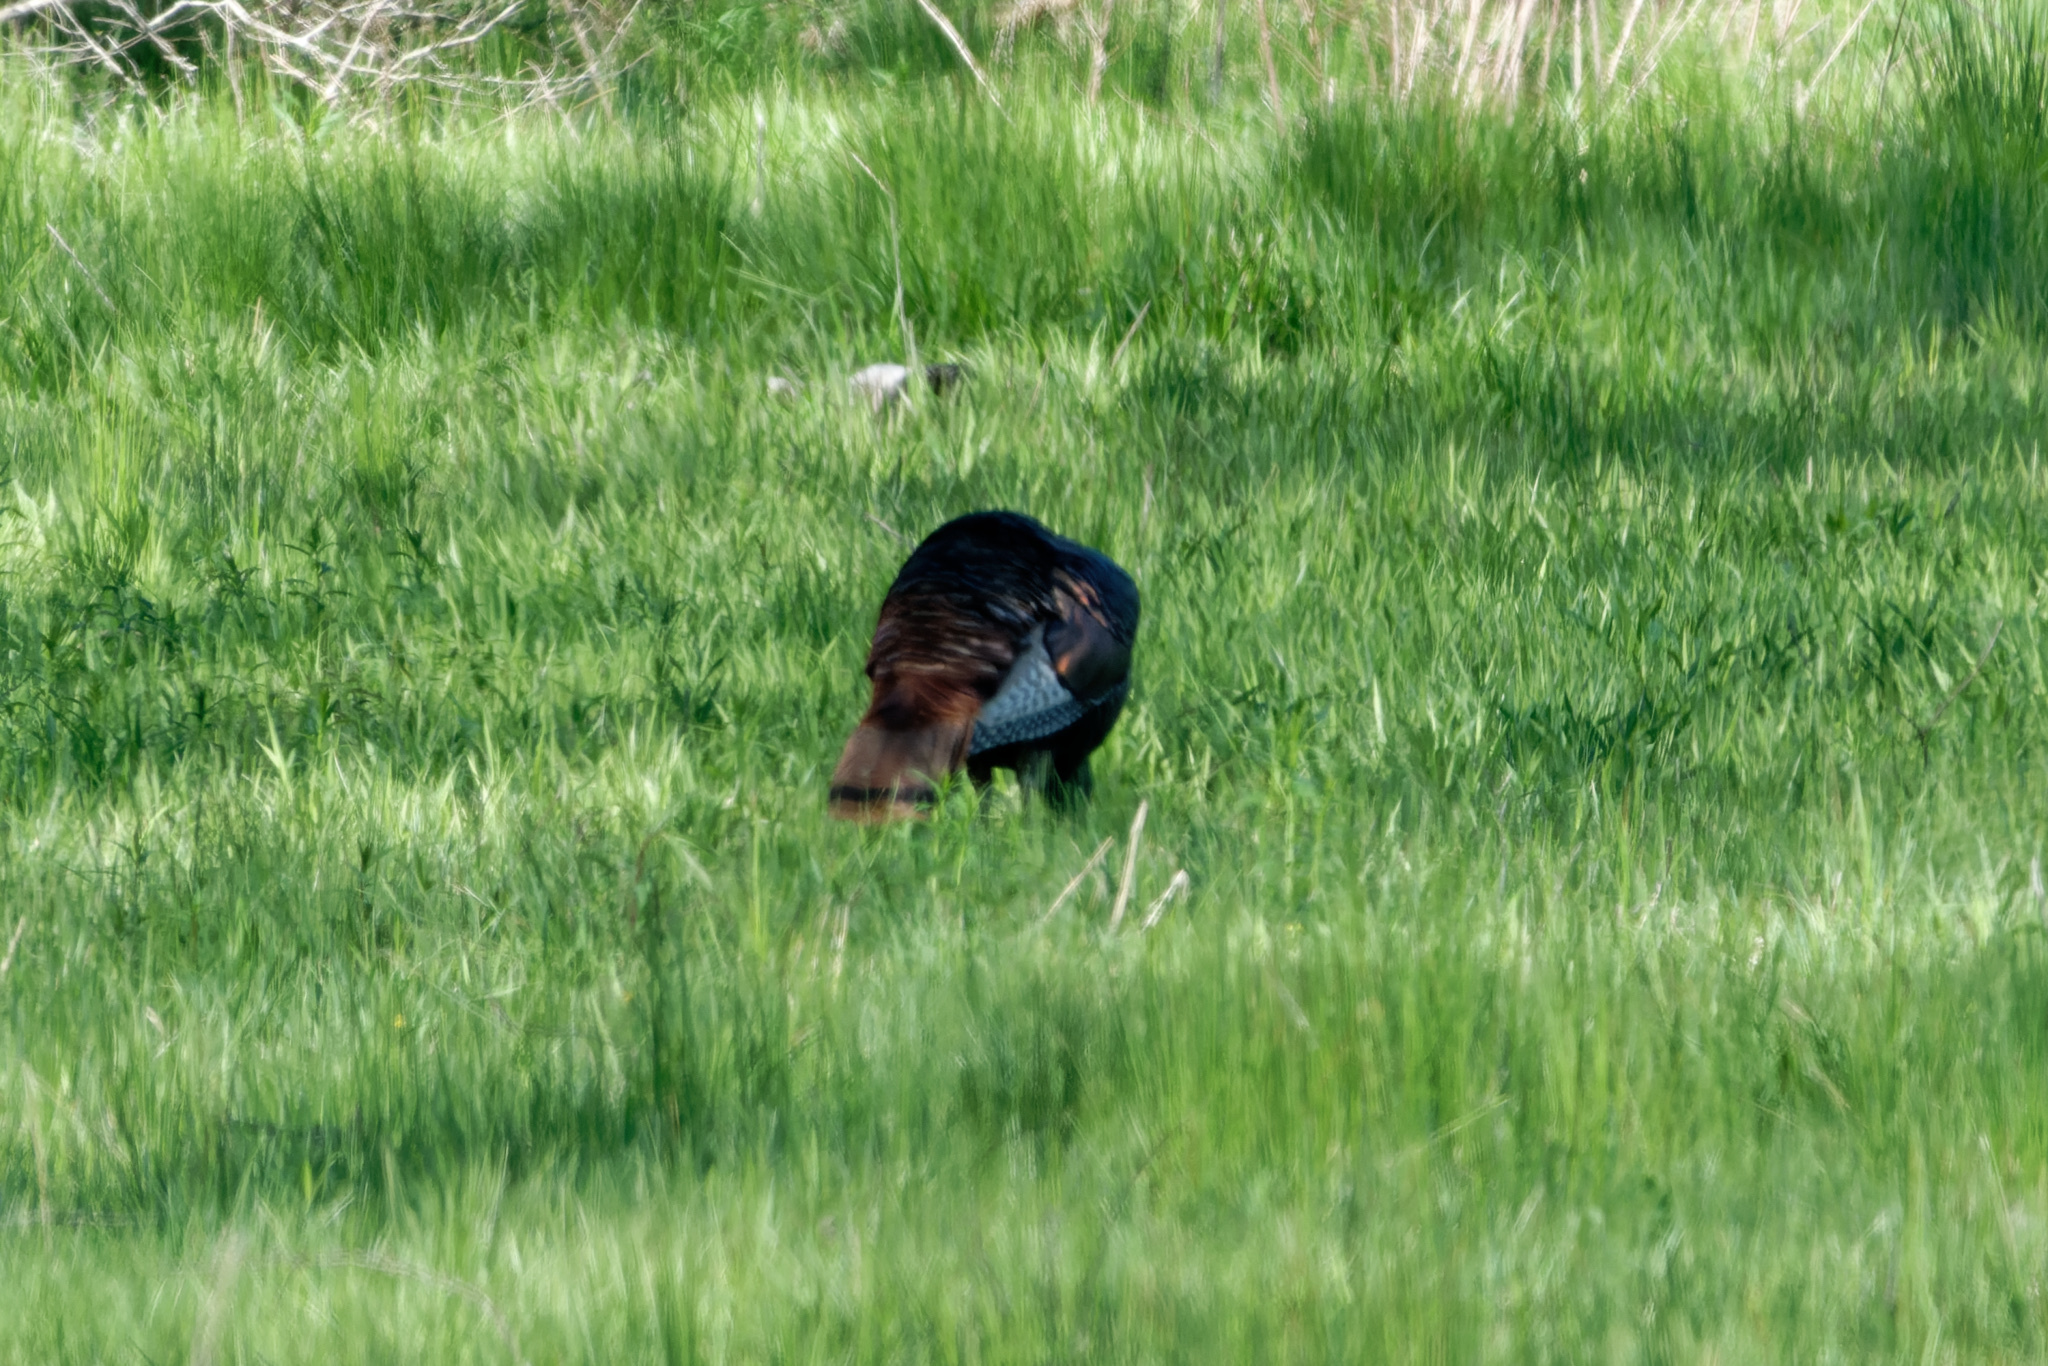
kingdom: Animalia
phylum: Chordata
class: Aves
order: Galliformes
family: Phasianidae
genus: Meleagris
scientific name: Meleagris gallopavo
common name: Wild turkey
